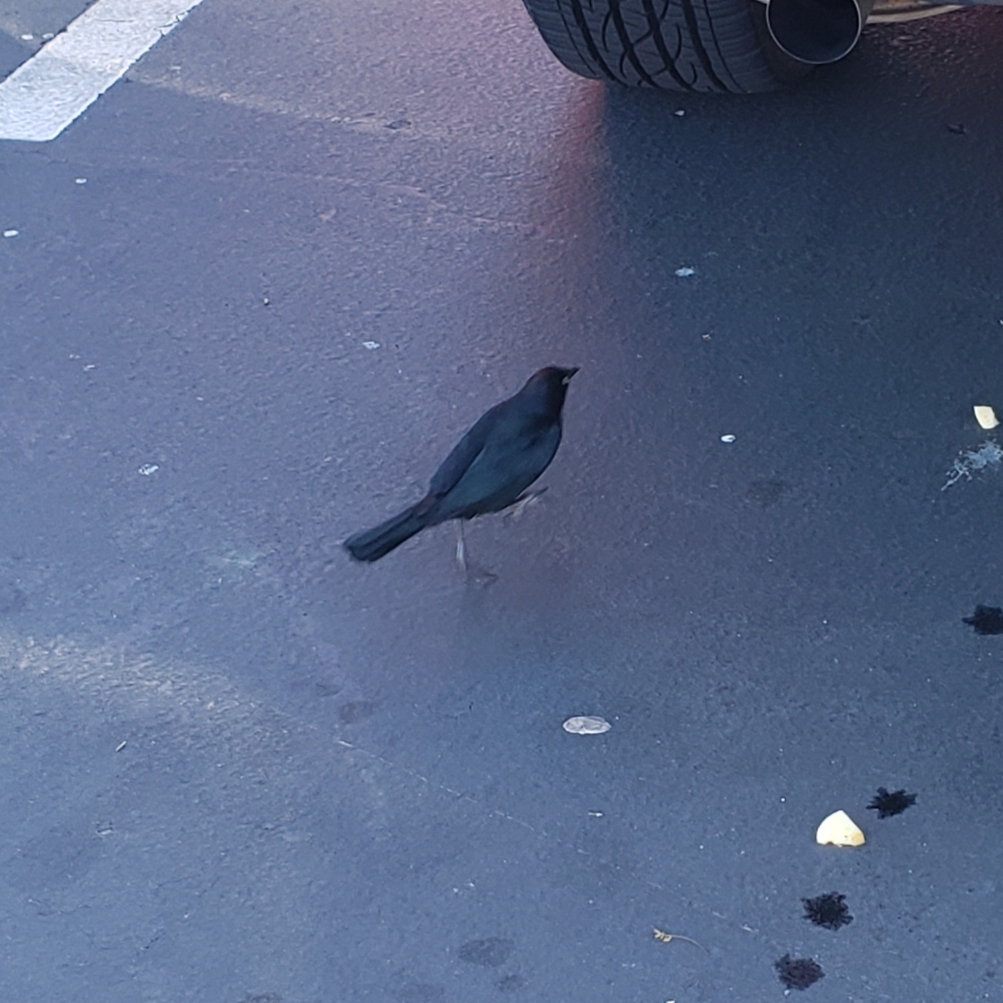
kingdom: Animalia
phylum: Chordata
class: Aves
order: Passeriformes
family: Icteridae
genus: Euphagus
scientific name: Euphagus cyanocephalus
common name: Brewer's blackbird
